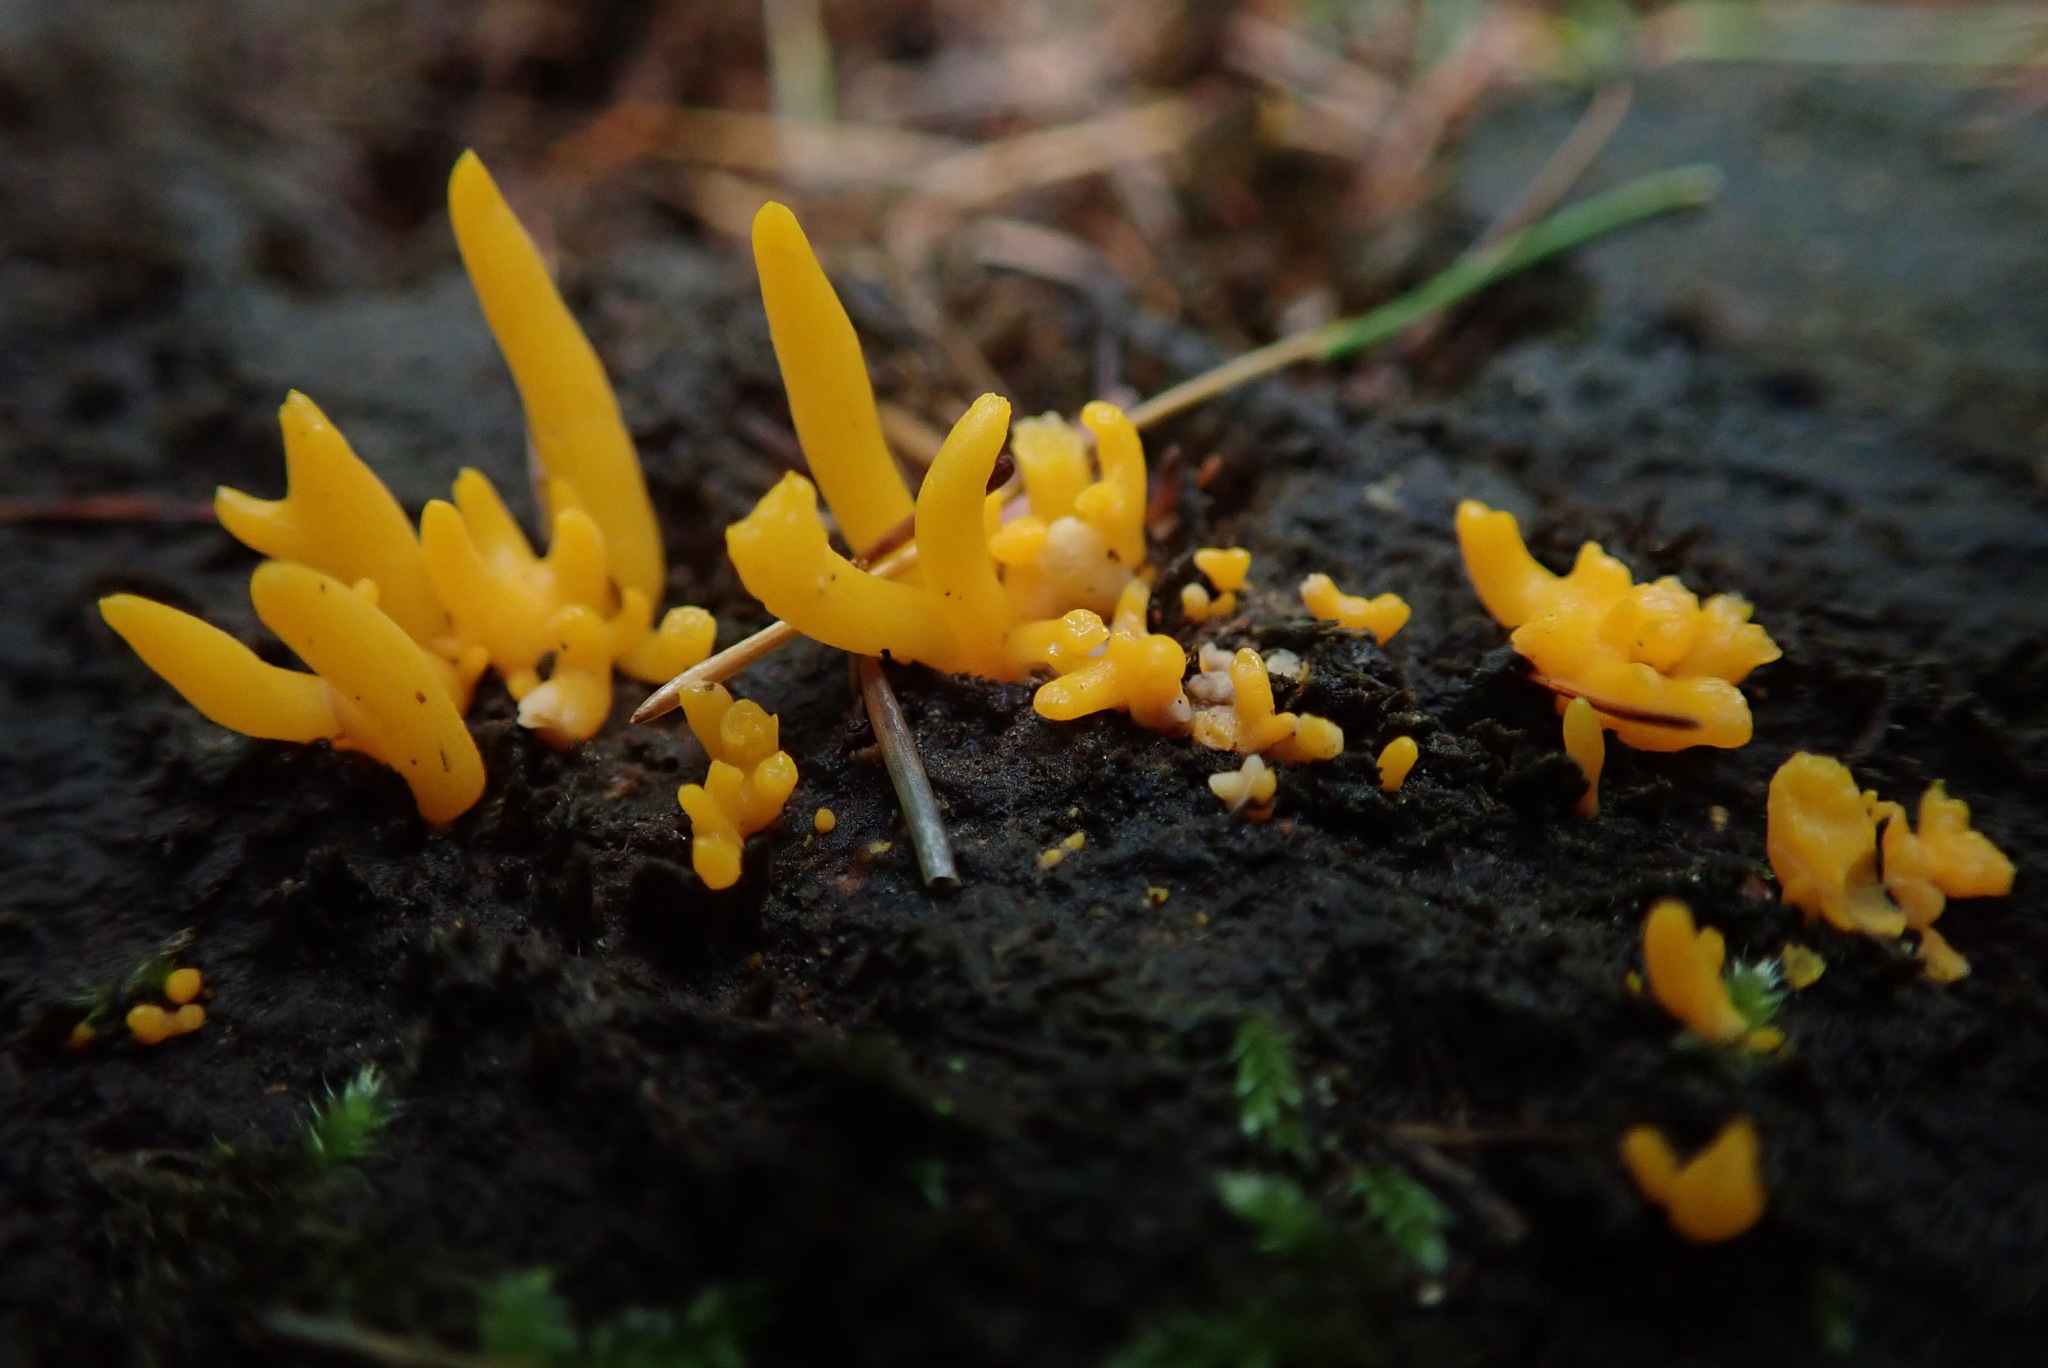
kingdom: Fungi
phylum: Basidiomycota
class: Dacrymycetes
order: Dacrymycetales
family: Dacrymycetaceae
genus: Calocera
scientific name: Calocera viscosa
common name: Yellow stagshorn
